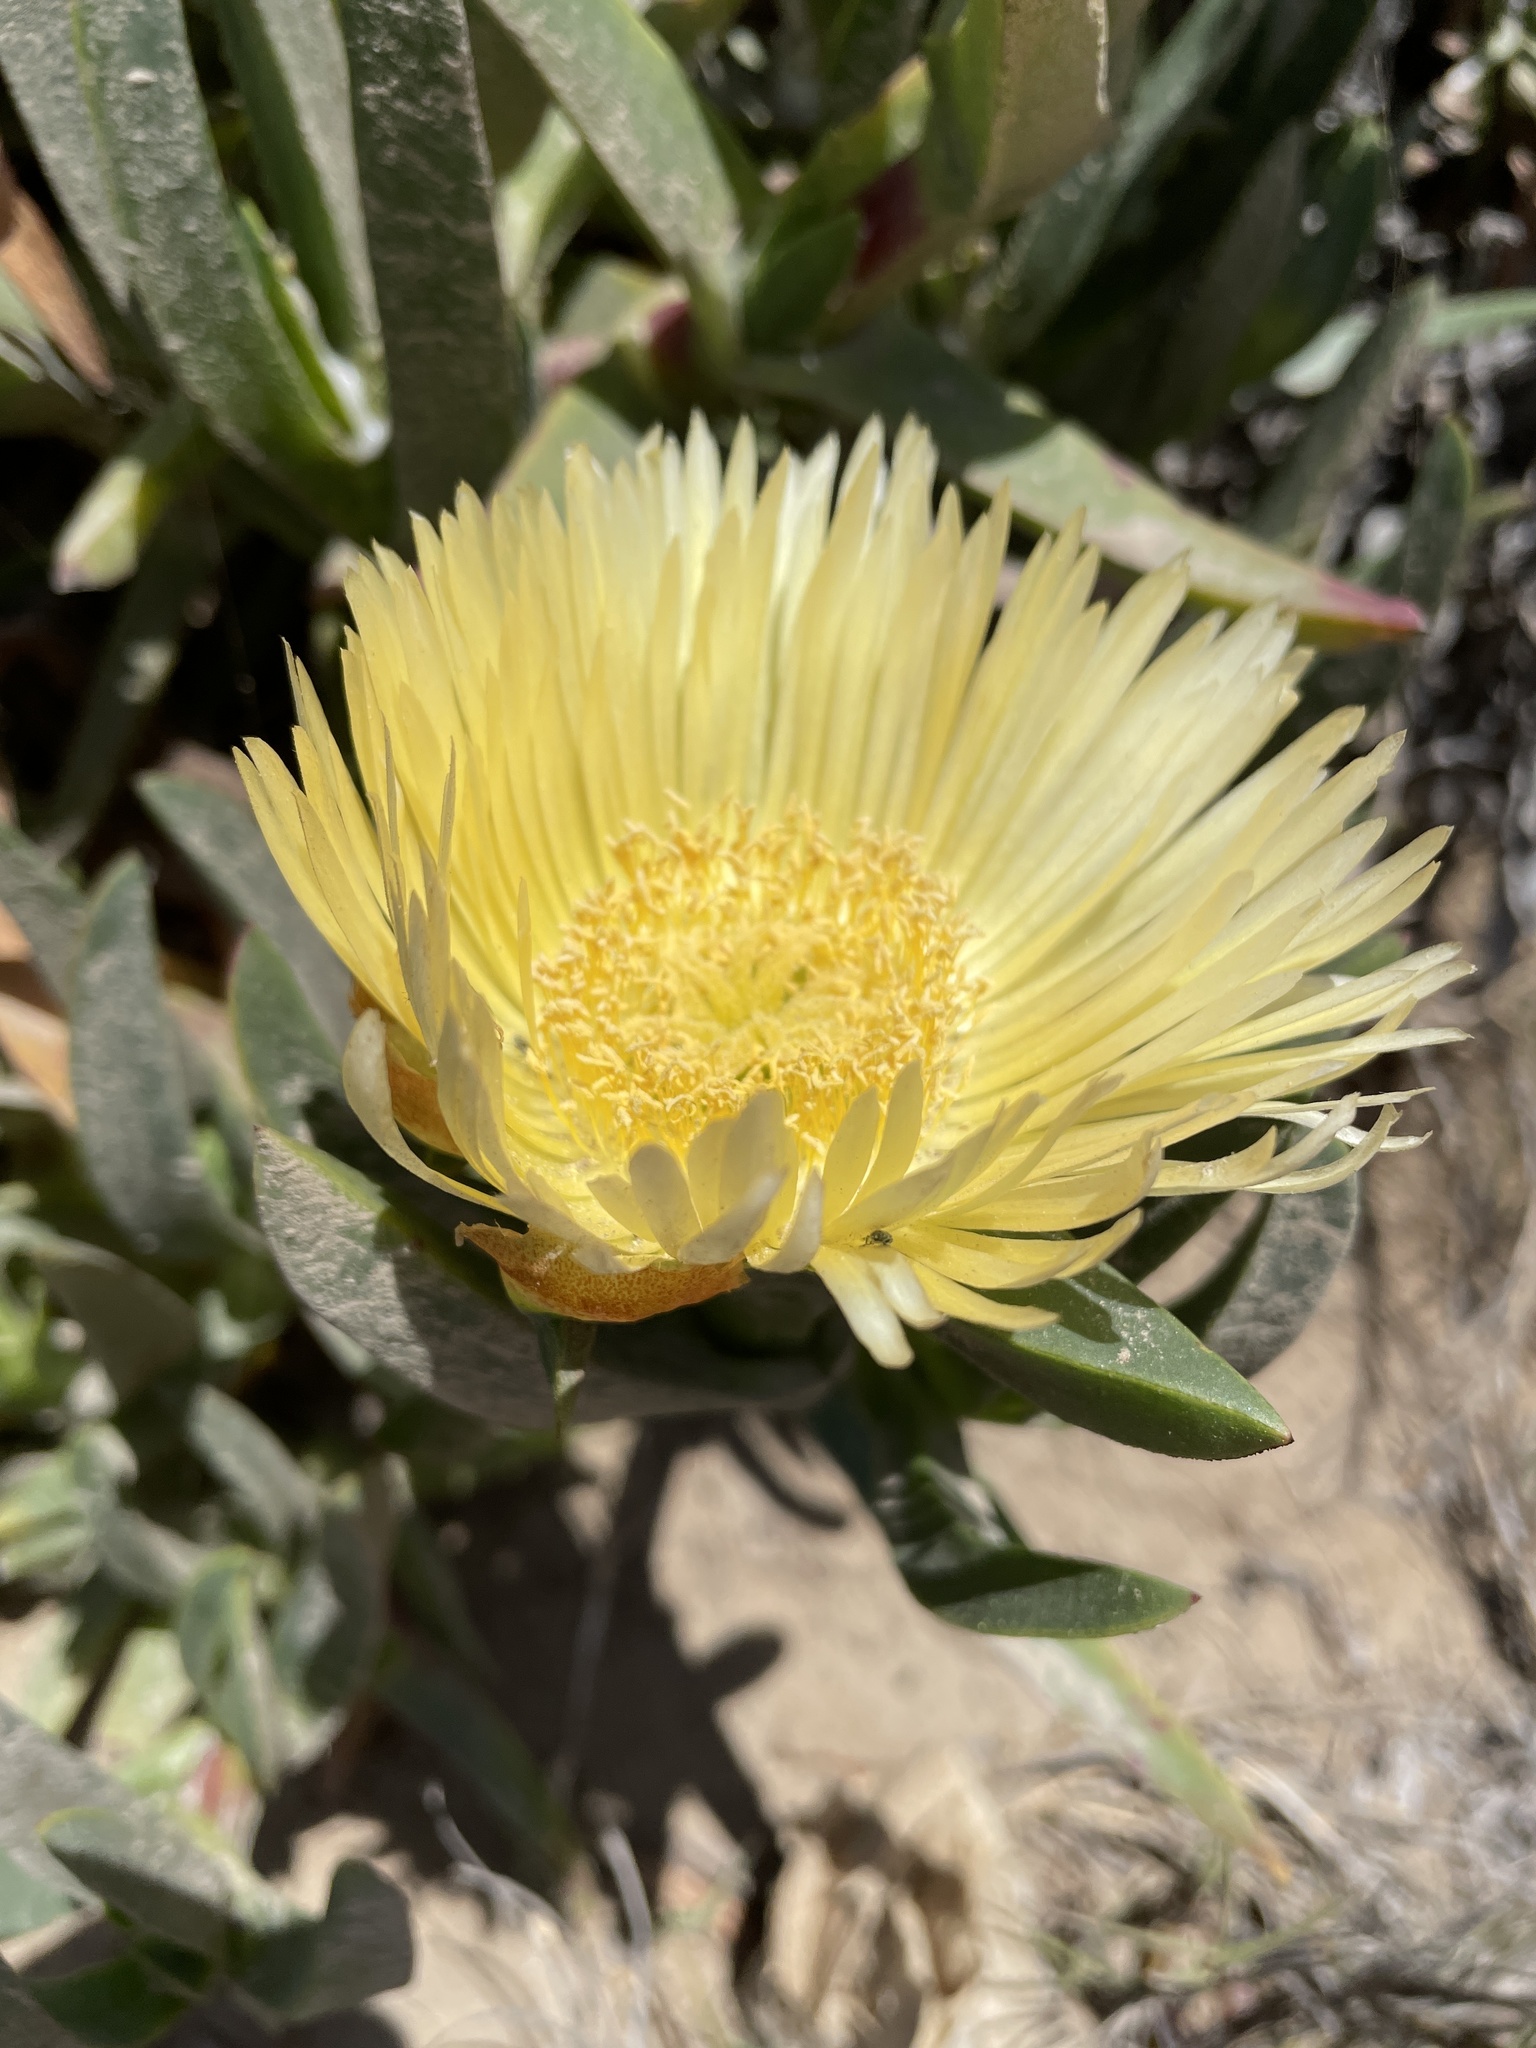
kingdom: Plantae
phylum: Tracheophyta
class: Magnoliopsida
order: Caryophyllales
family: Aizoaceae
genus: Carpobrotus
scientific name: Carpobrotus edulis
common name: Hottentot-fig
